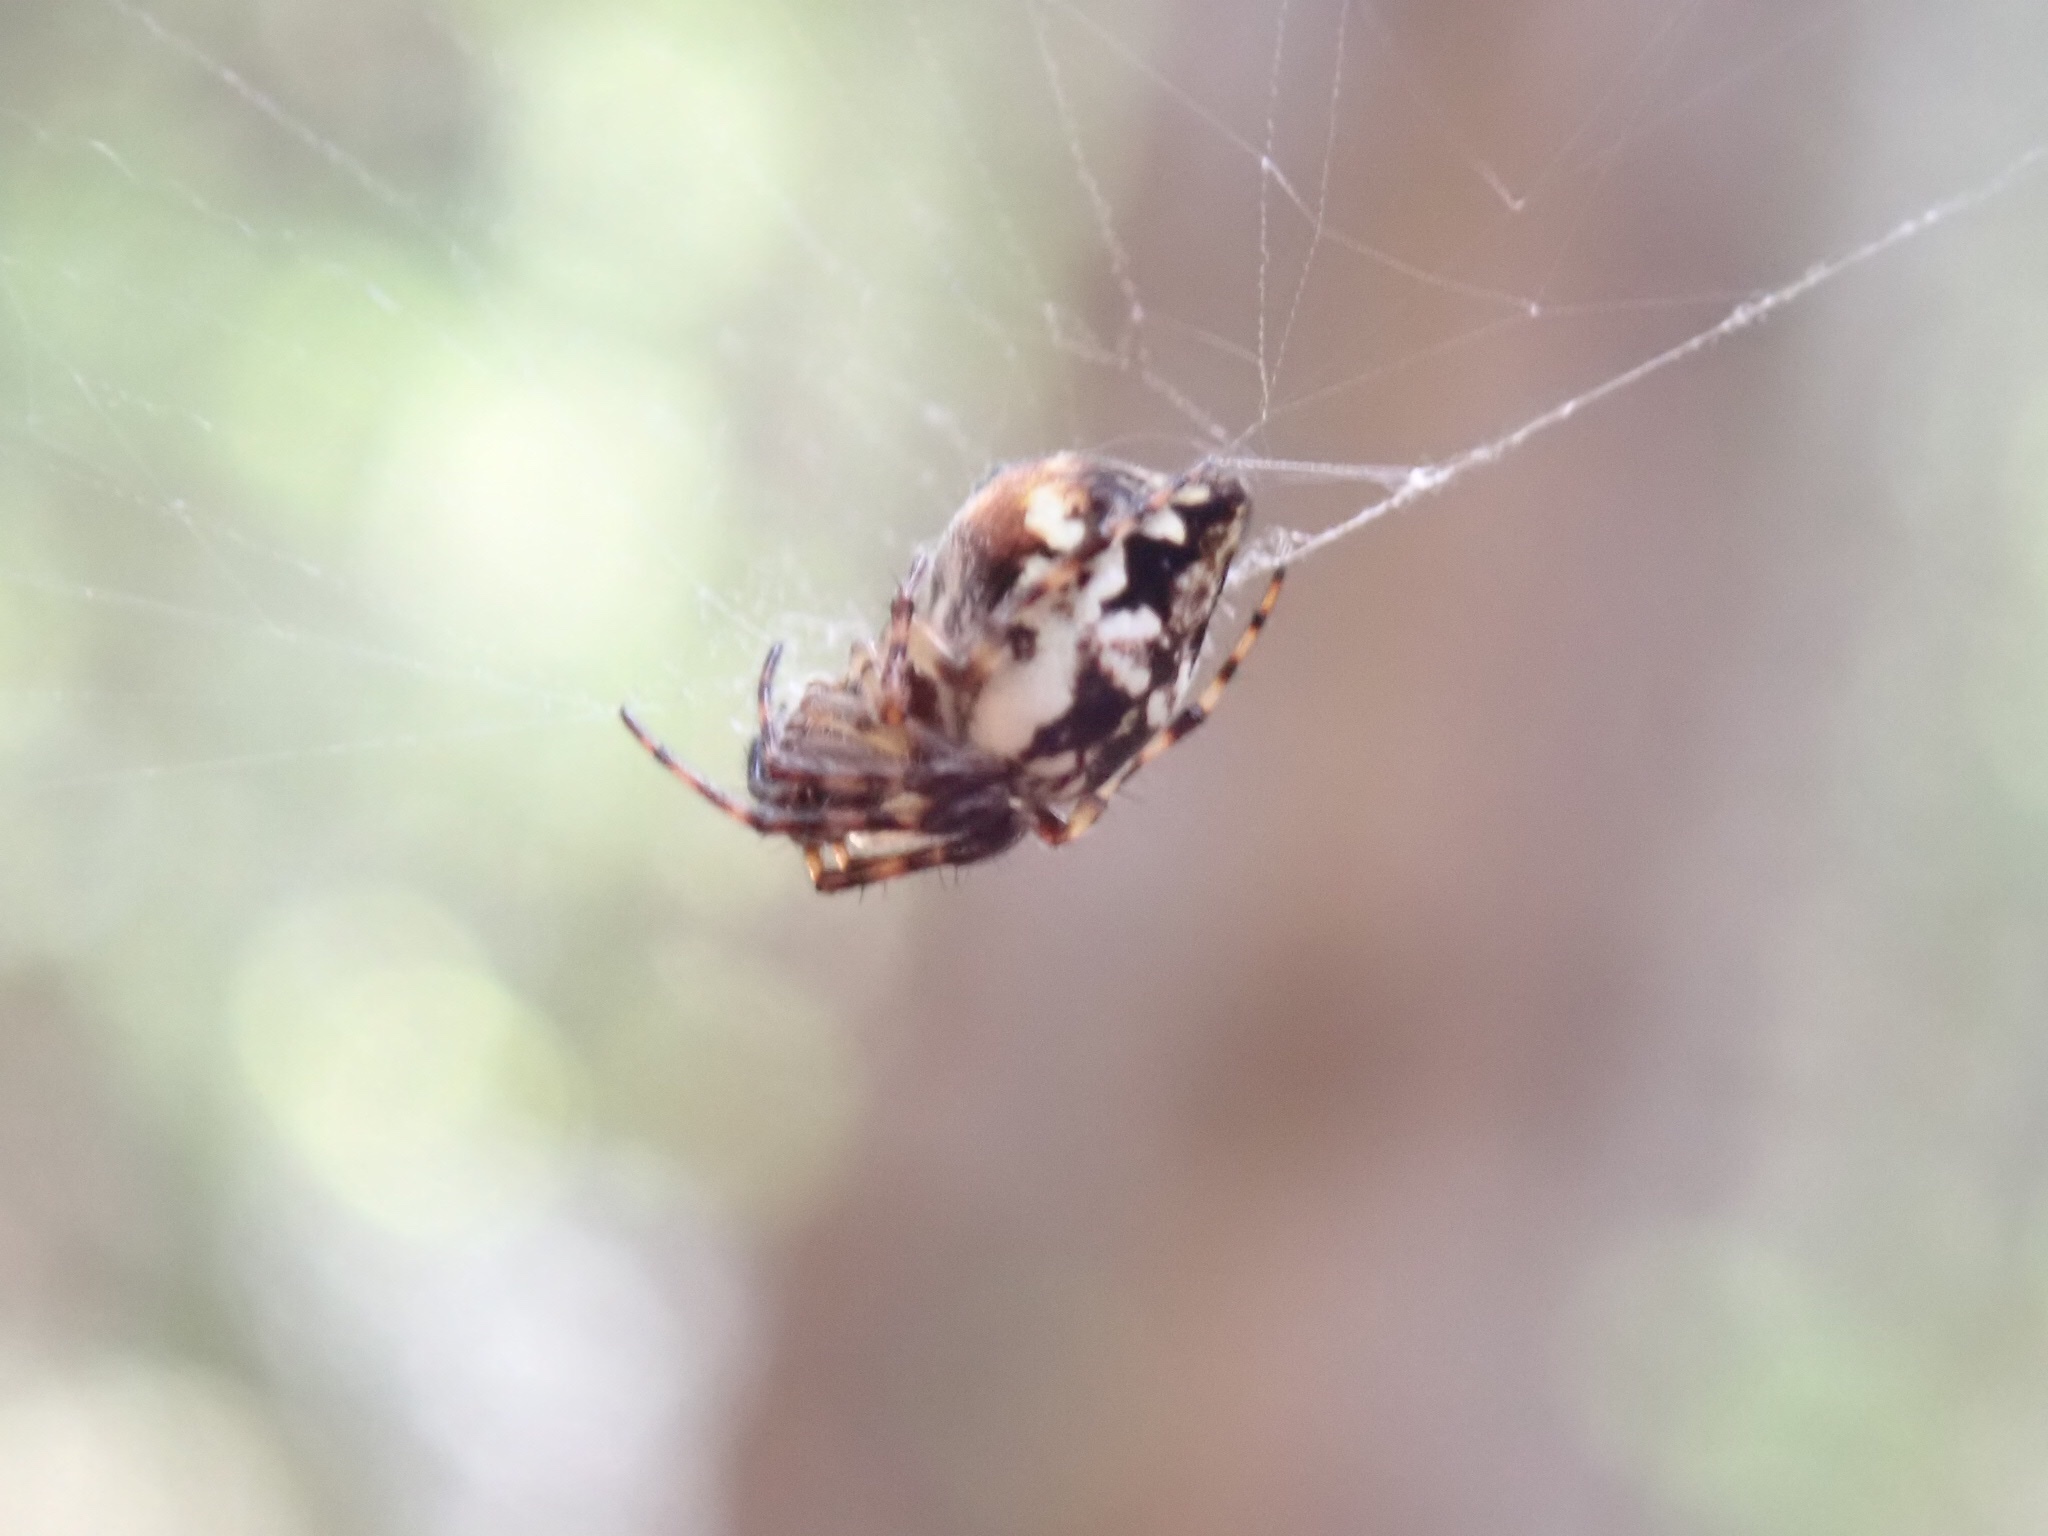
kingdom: Animalia
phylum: Arthropoda
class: Arachnida
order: Araneae
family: Araneidae
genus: Cyclosa
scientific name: Cyclosa conica
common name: Conical trashline orbweaver
